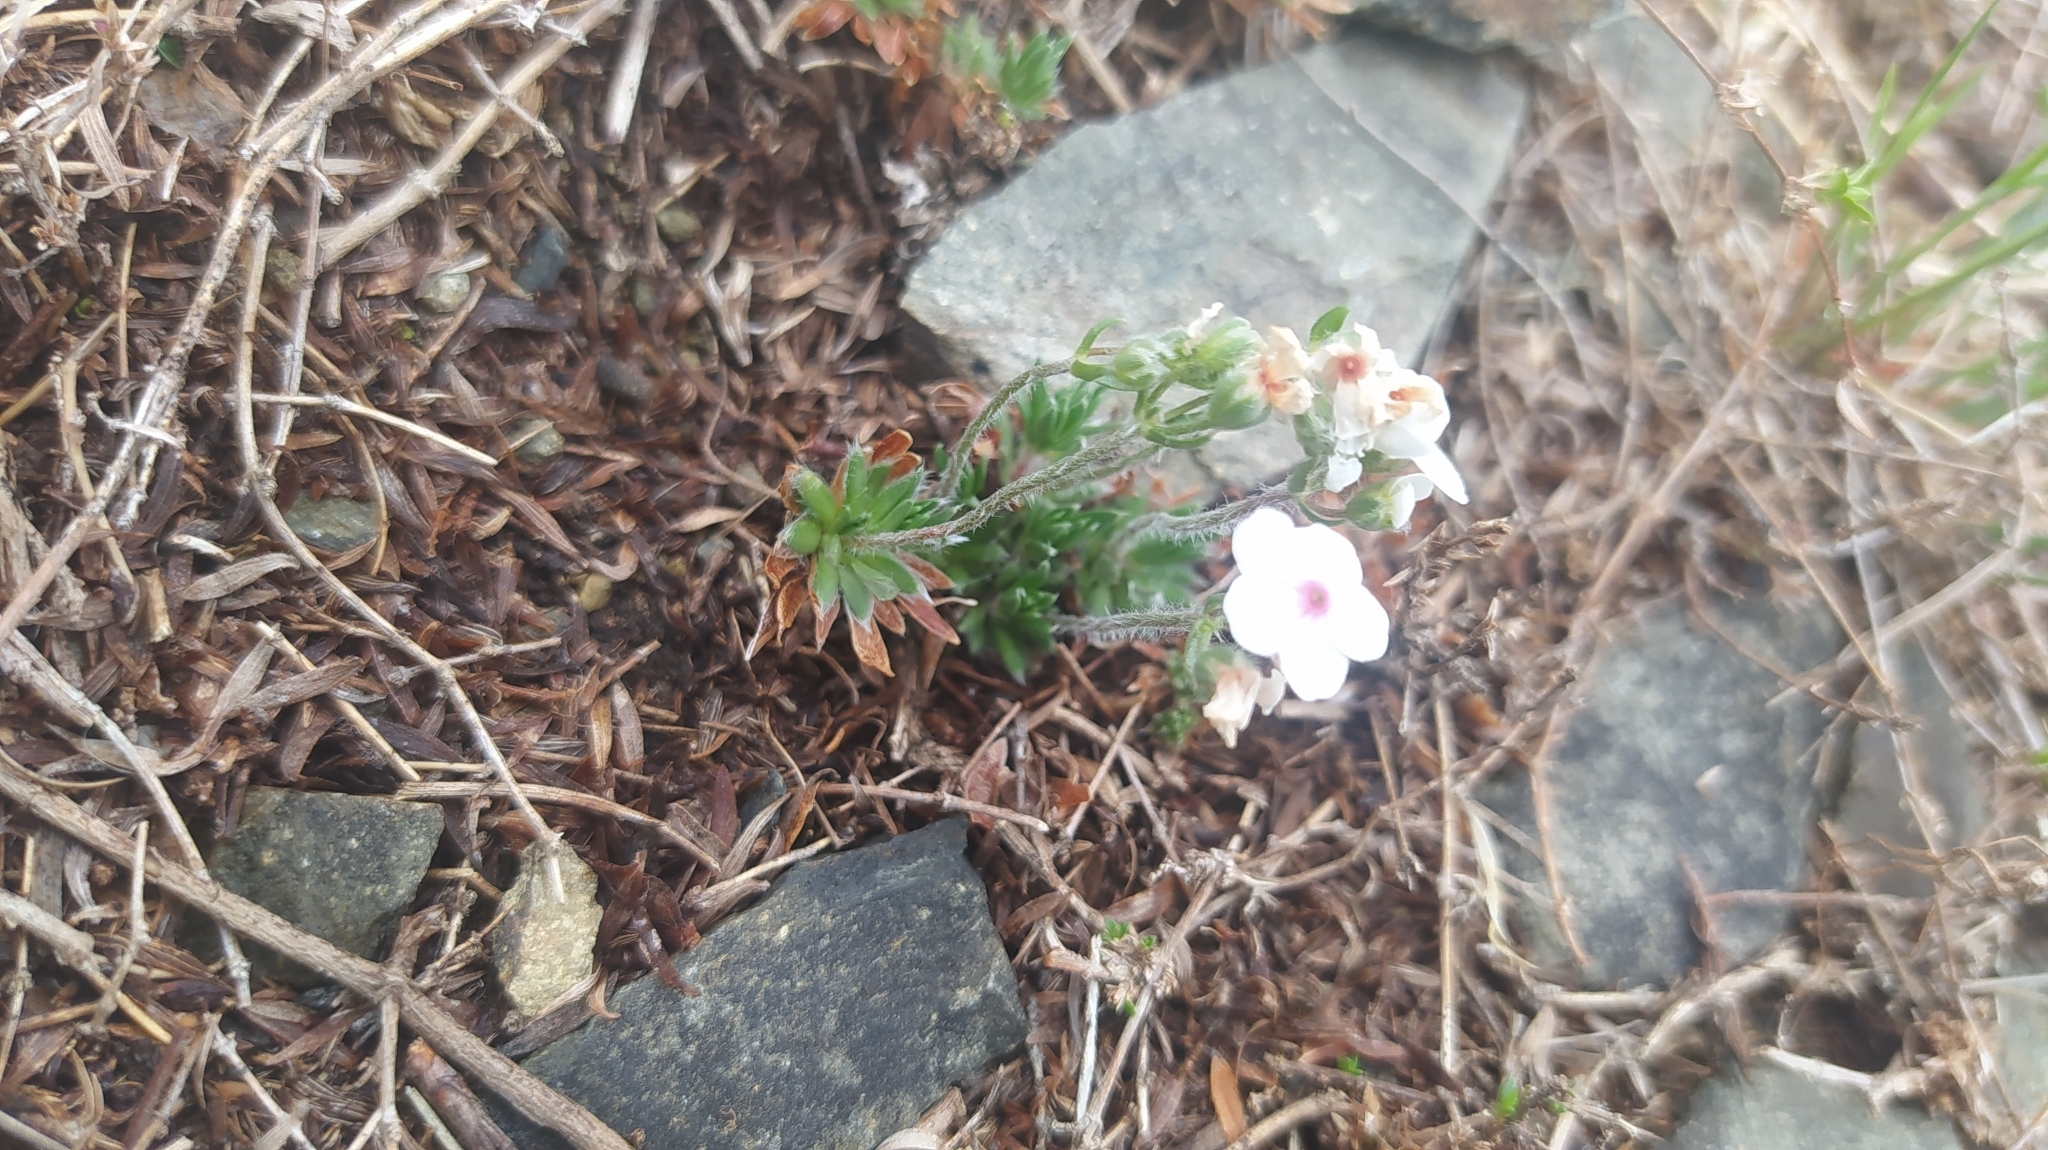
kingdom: Plantae
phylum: Tracheophyta
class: Magnoliopsida
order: Ericales
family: Primulaceae
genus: Androsace
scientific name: Androsace incana
